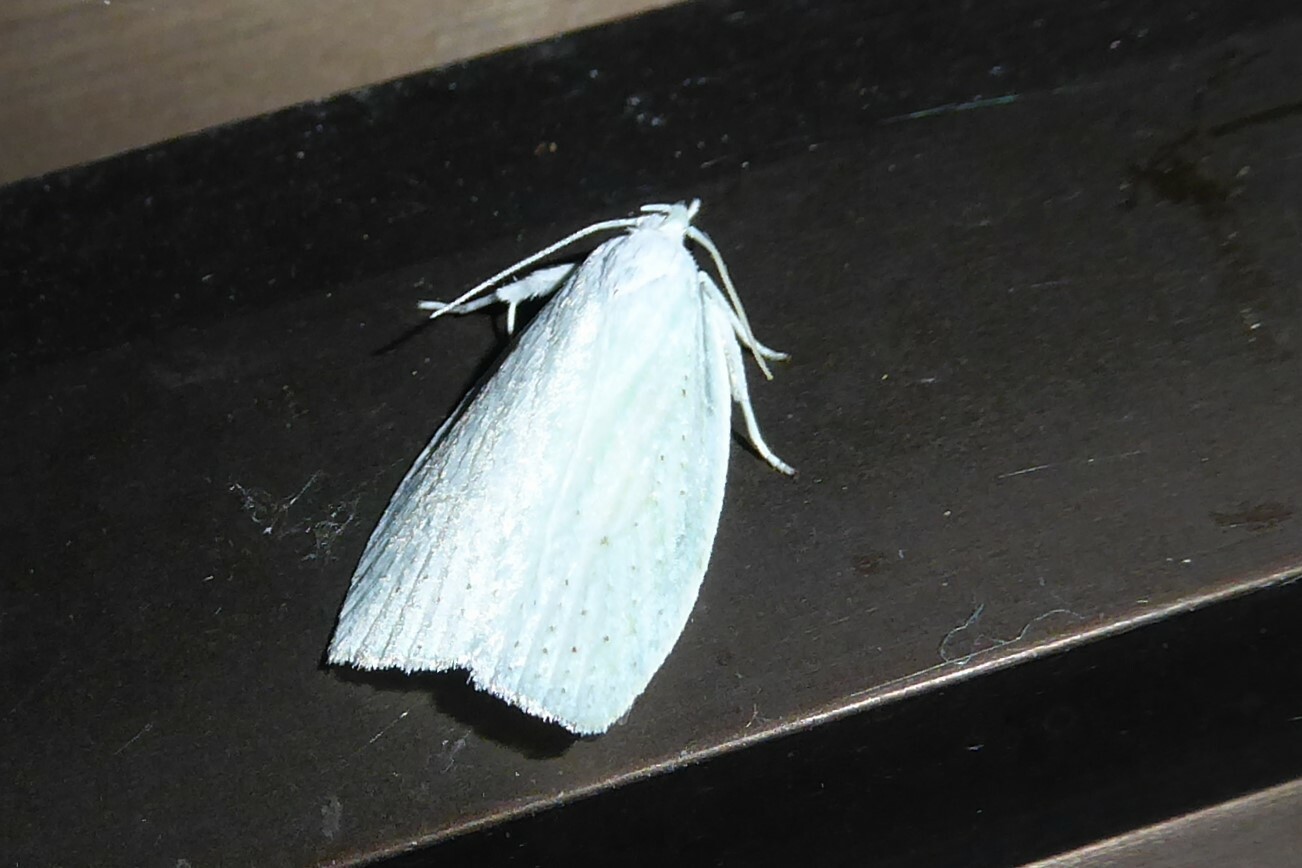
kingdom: Animalia
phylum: Arthropoda
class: Insecta
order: Lepidoptera
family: Oecophoridae
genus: Nymphostola
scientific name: Nymphostola galactina
